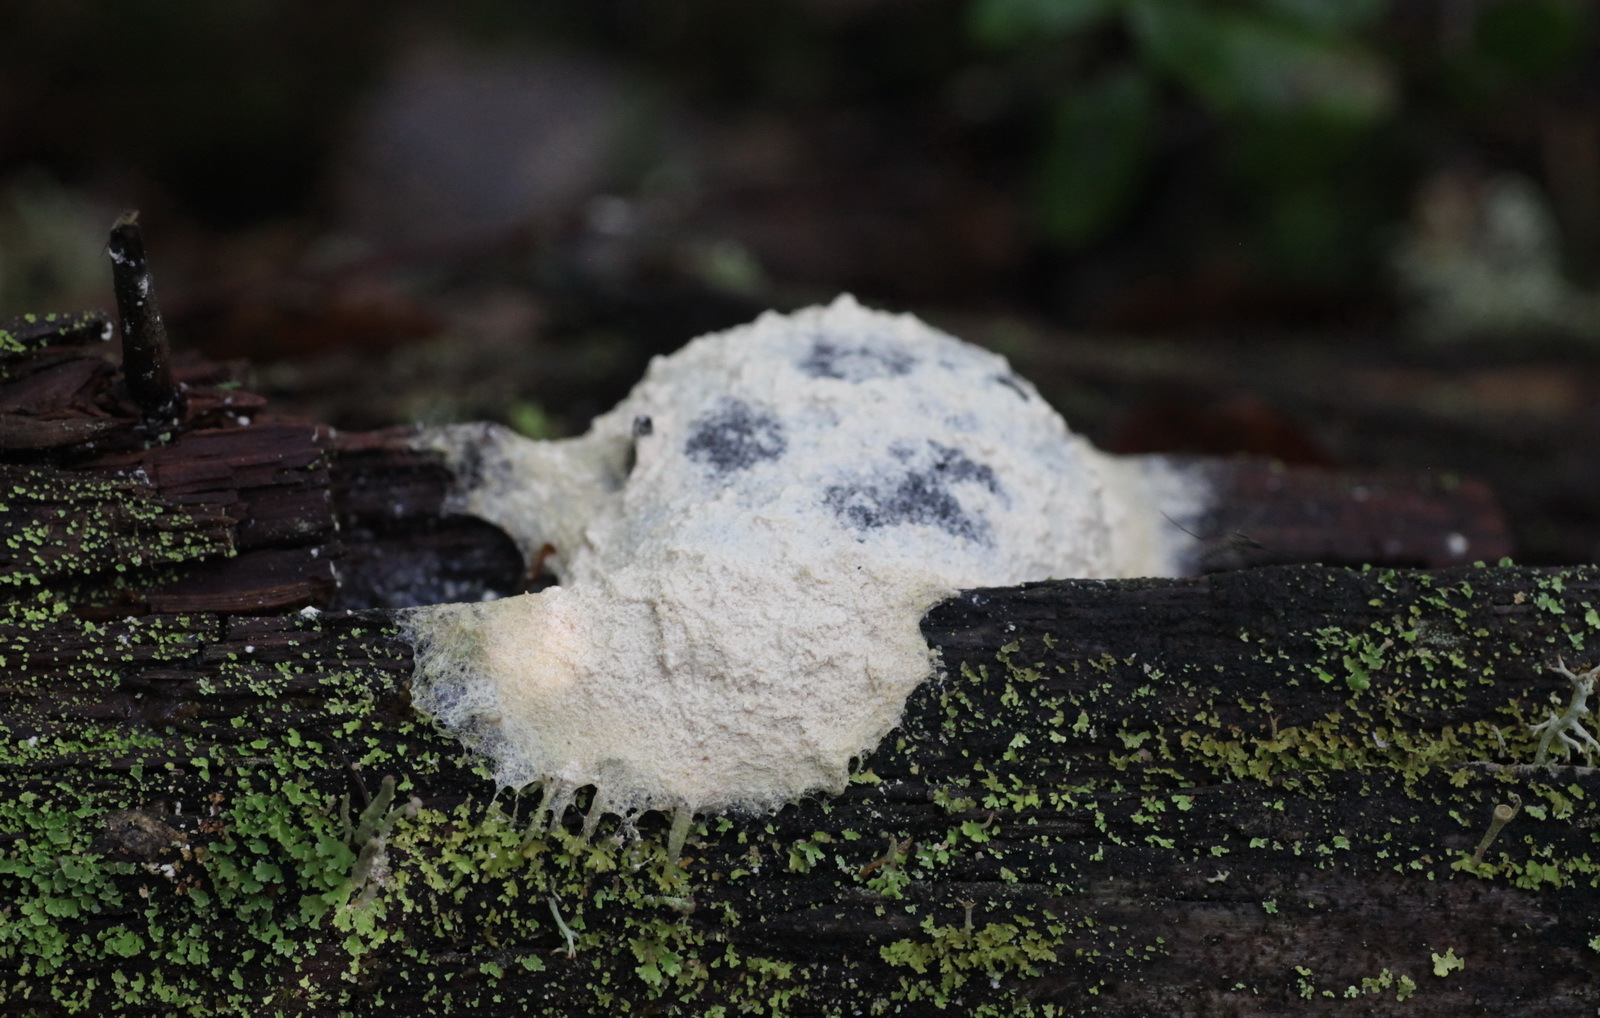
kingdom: Protozoa
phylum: Mycetozoa
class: Myxomycetes
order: Physarales
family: Physaraceae
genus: Fuligo
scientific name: Fuligo septica
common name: Dog vomit slime mold
